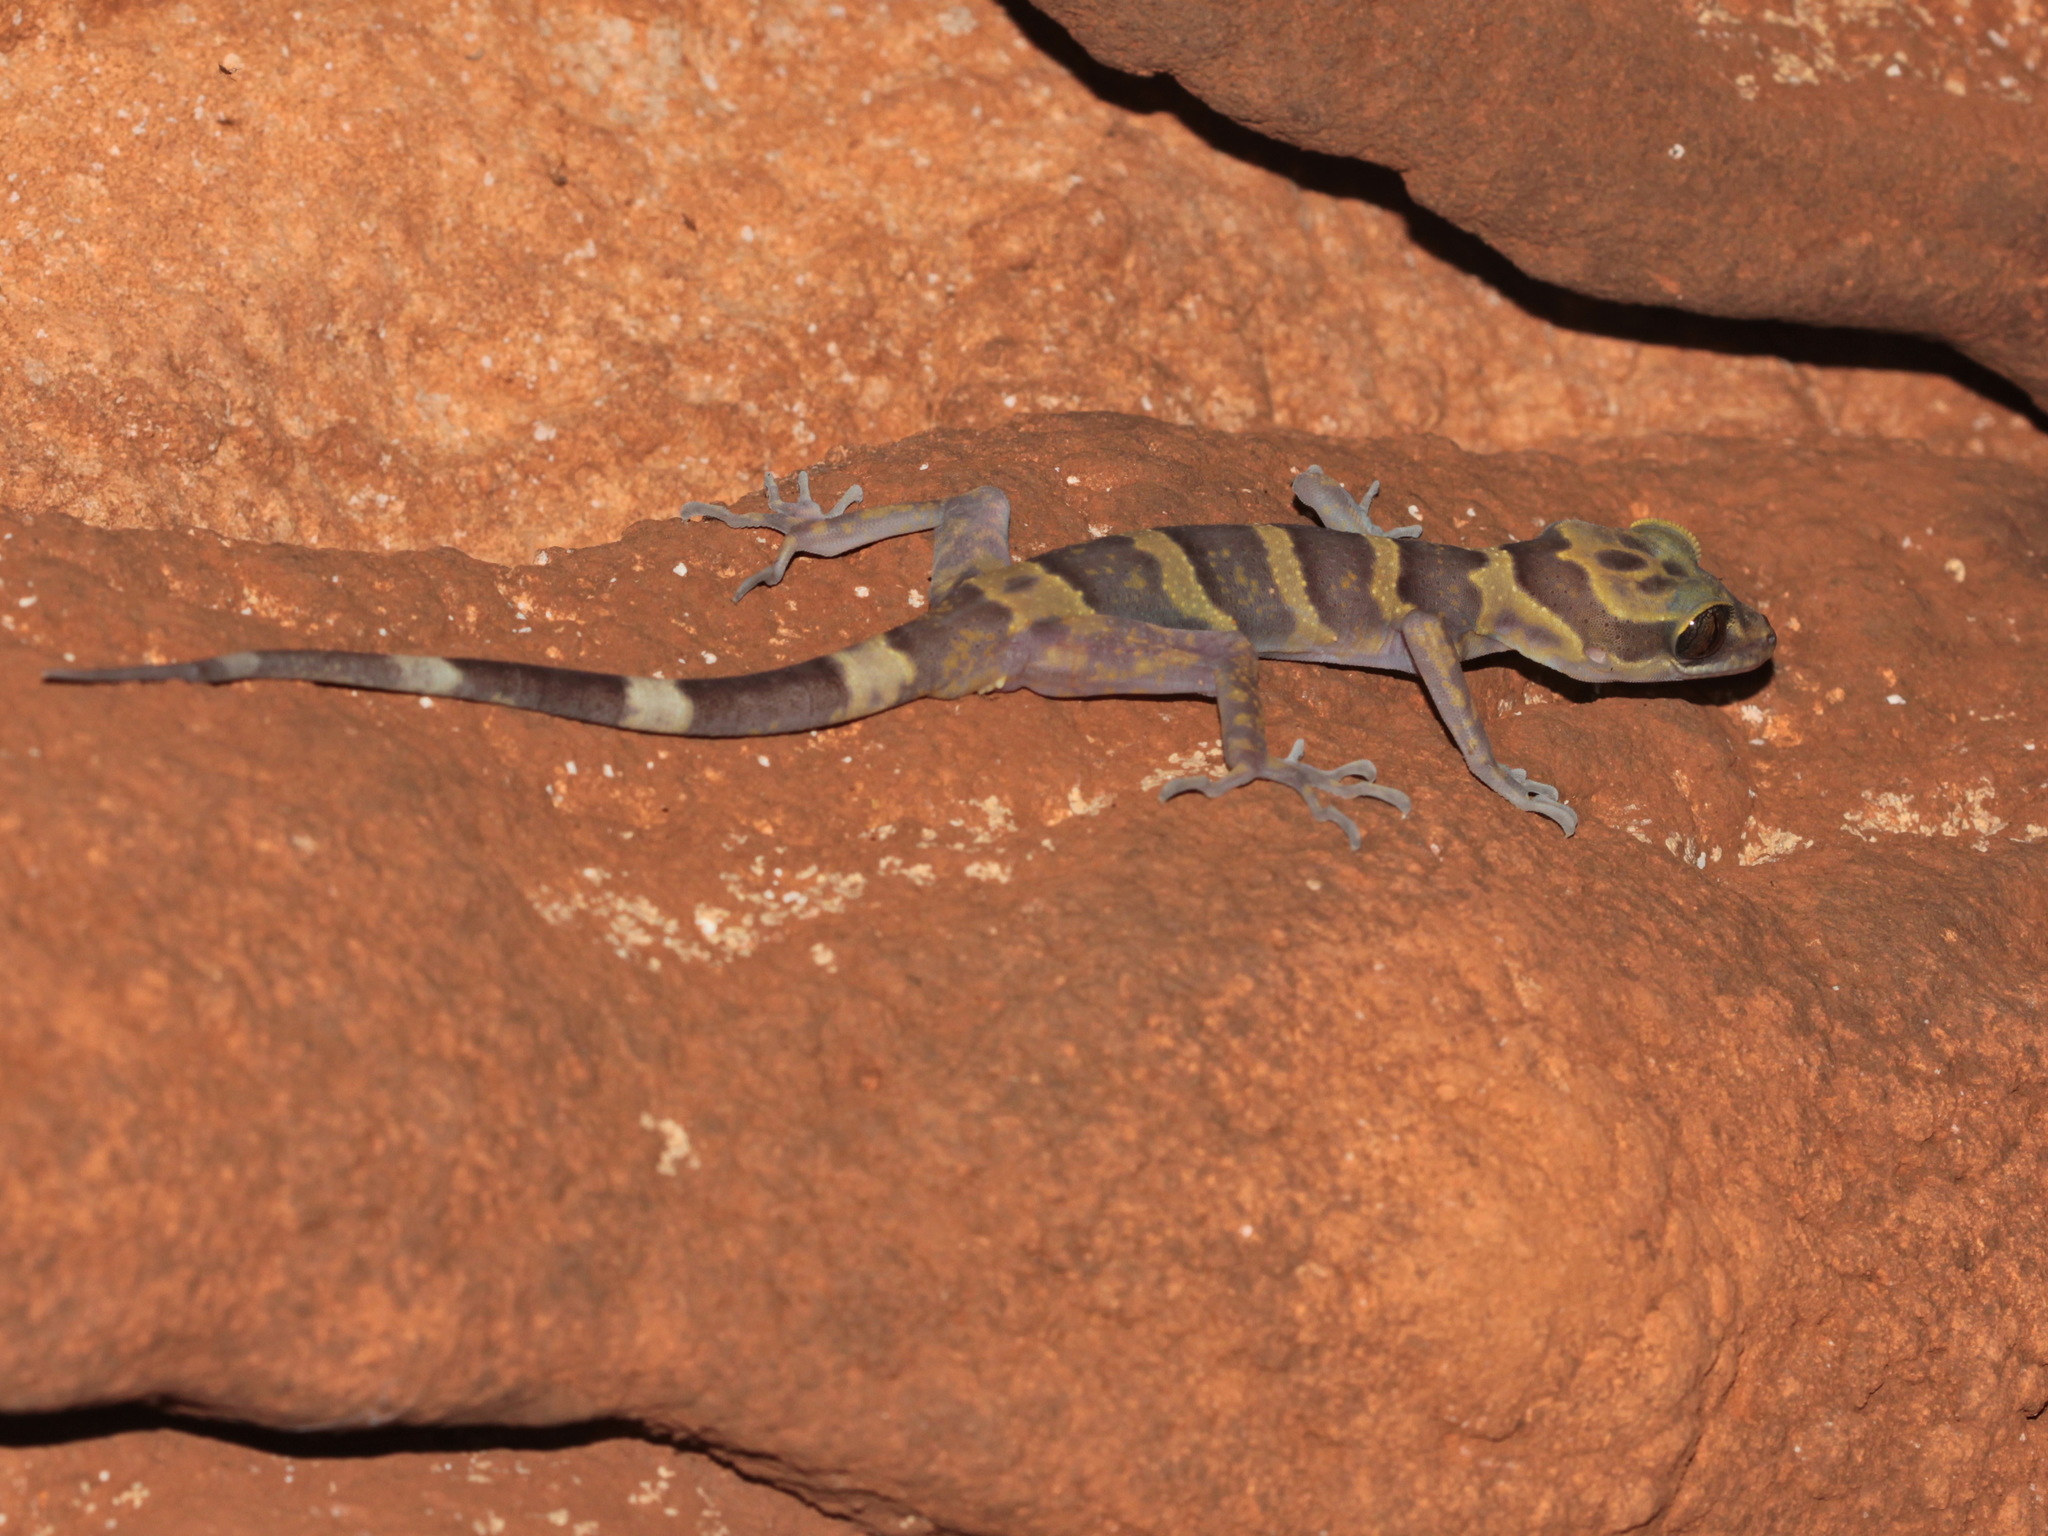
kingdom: Animalia
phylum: Chordata
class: Squamata
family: Gekkonidae
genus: Cyrtodactylus
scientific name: Cyrtodactylus auribalteatus
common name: Golden-belted bent-toed gecko
